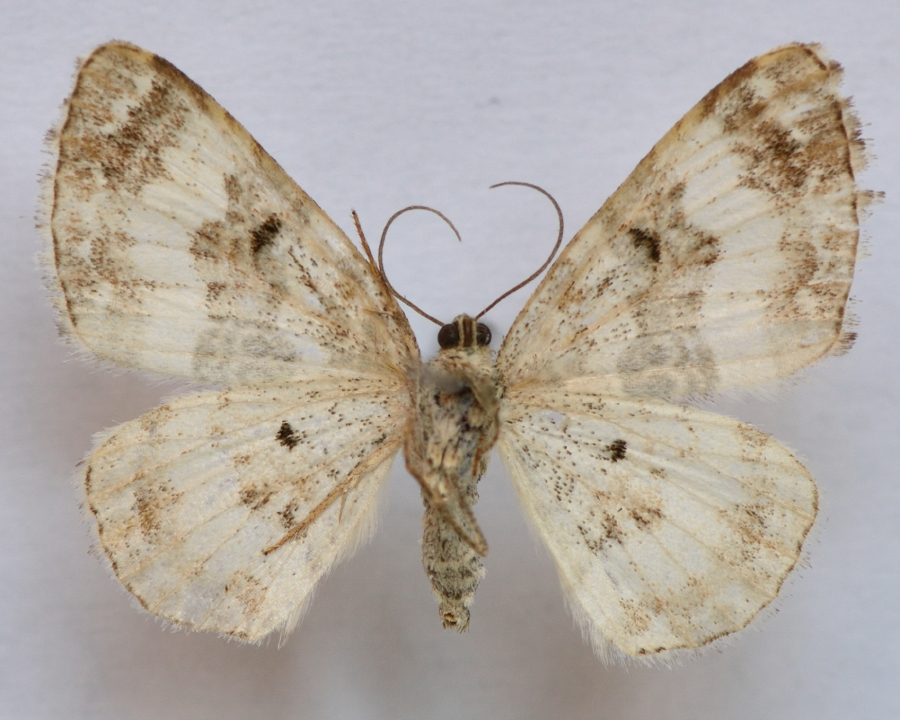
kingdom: Animalia
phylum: Arthropoda
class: Insecta
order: Lepidoptera
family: Geometridae
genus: Epirrhoe
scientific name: Epirrhoe rivata
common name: Wood carpet
